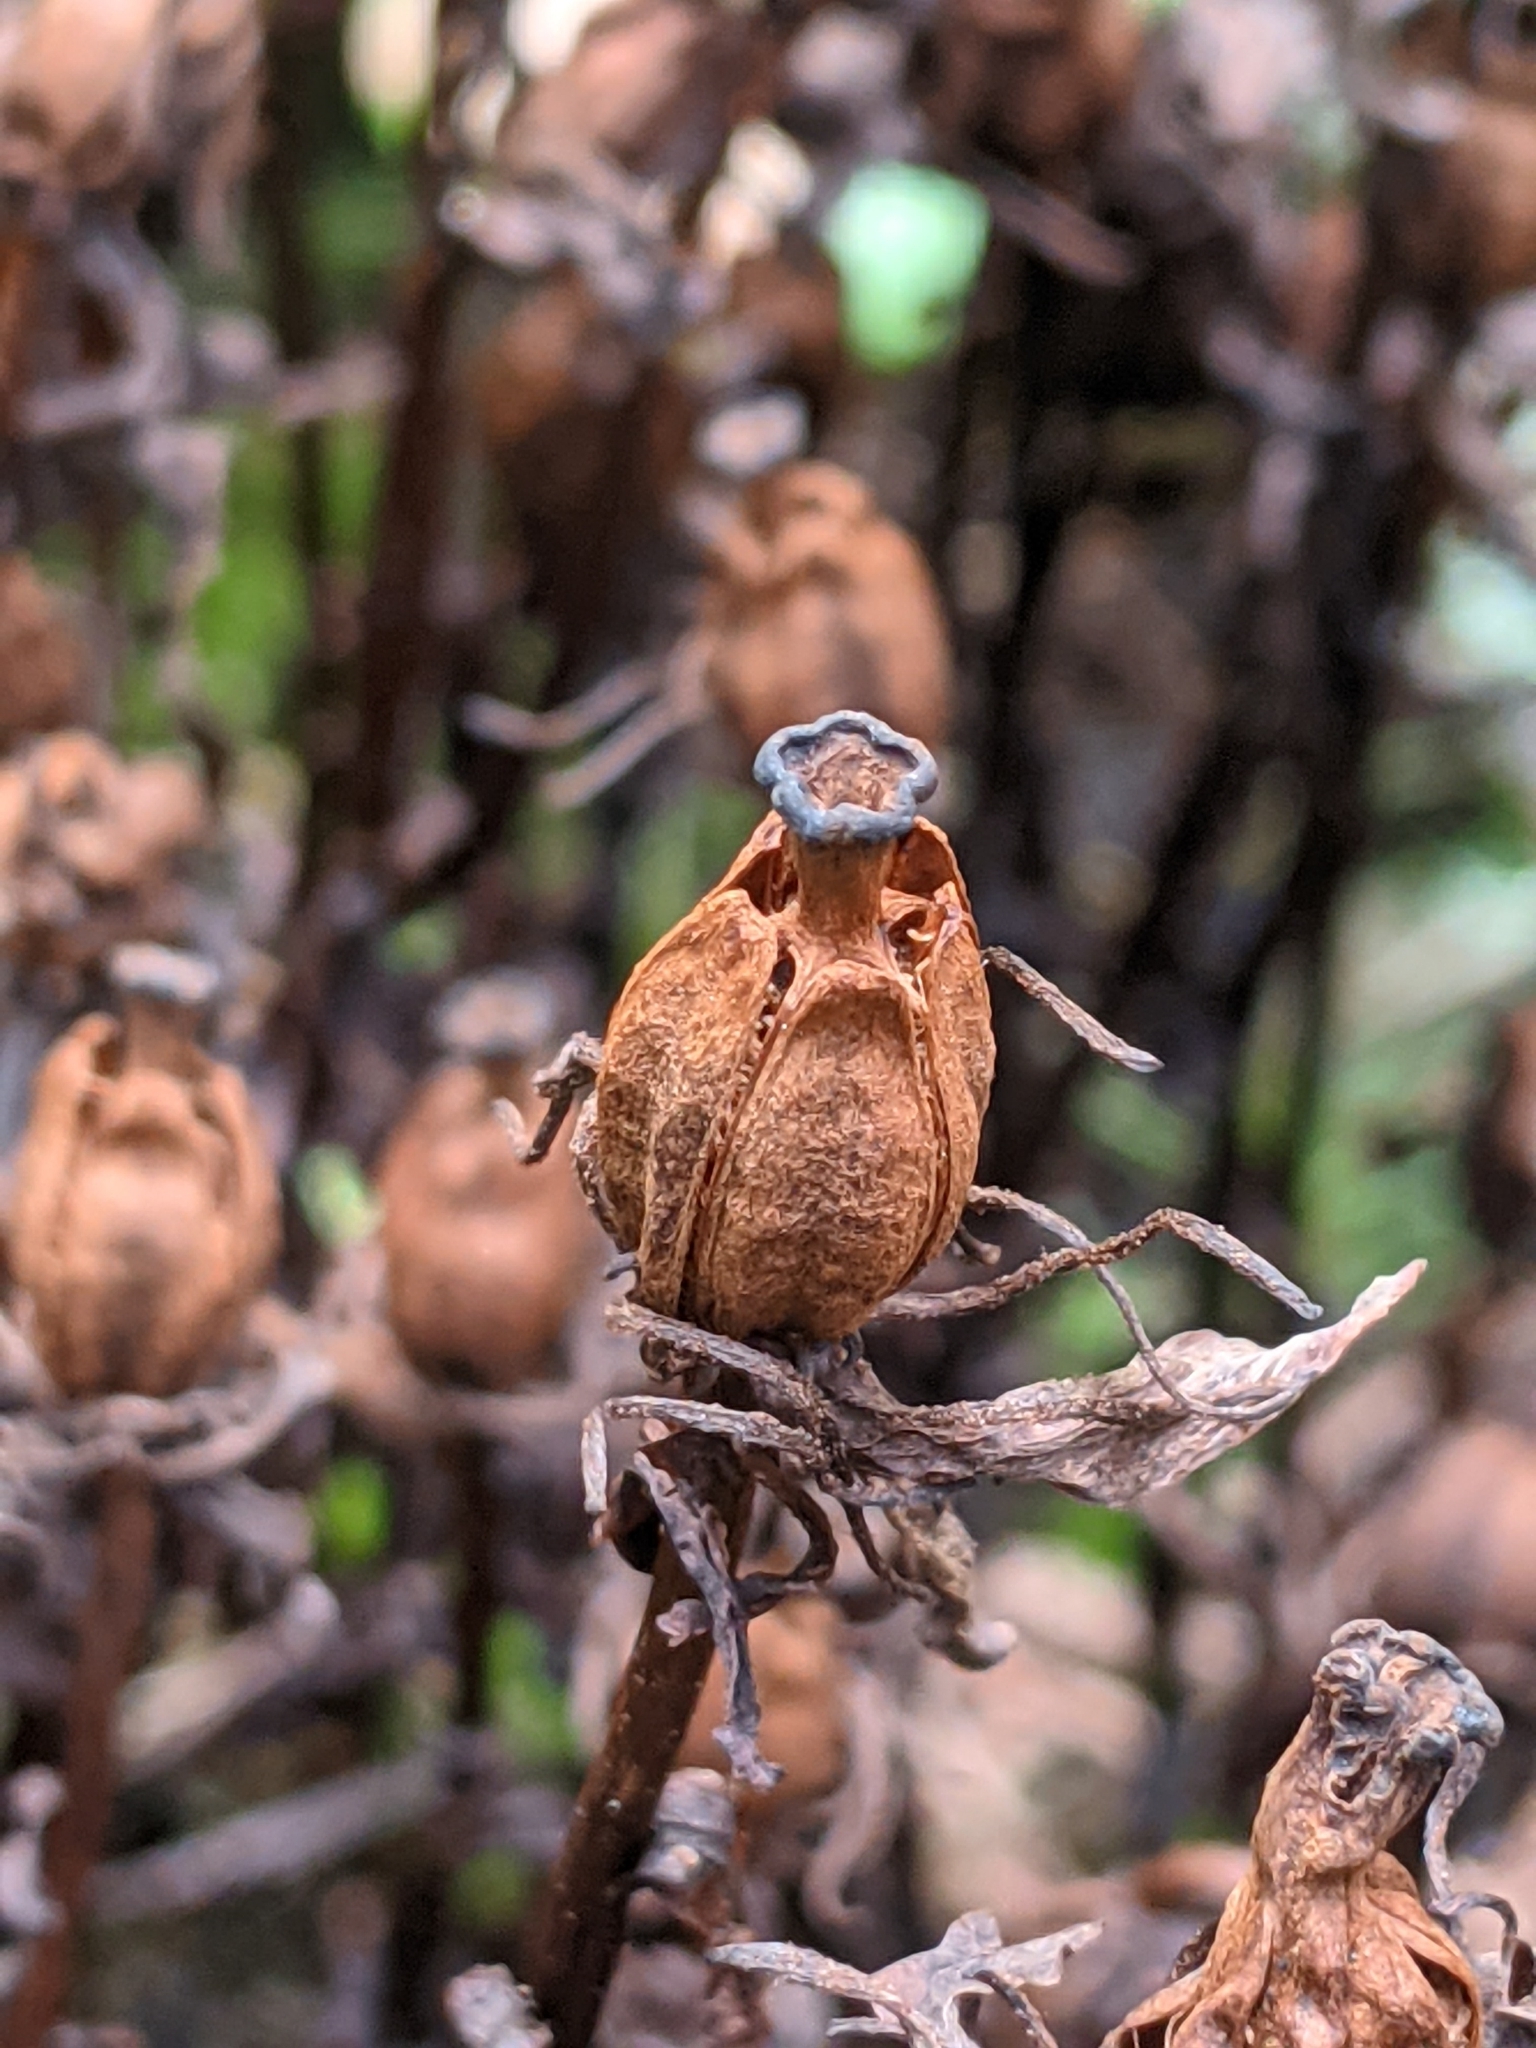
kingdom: Plantae
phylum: Tracheophyta
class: Magnoliopsida
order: Ericales
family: Ericaceae
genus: Monotropa
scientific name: Monotropa uniflora
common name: Convulsion root
